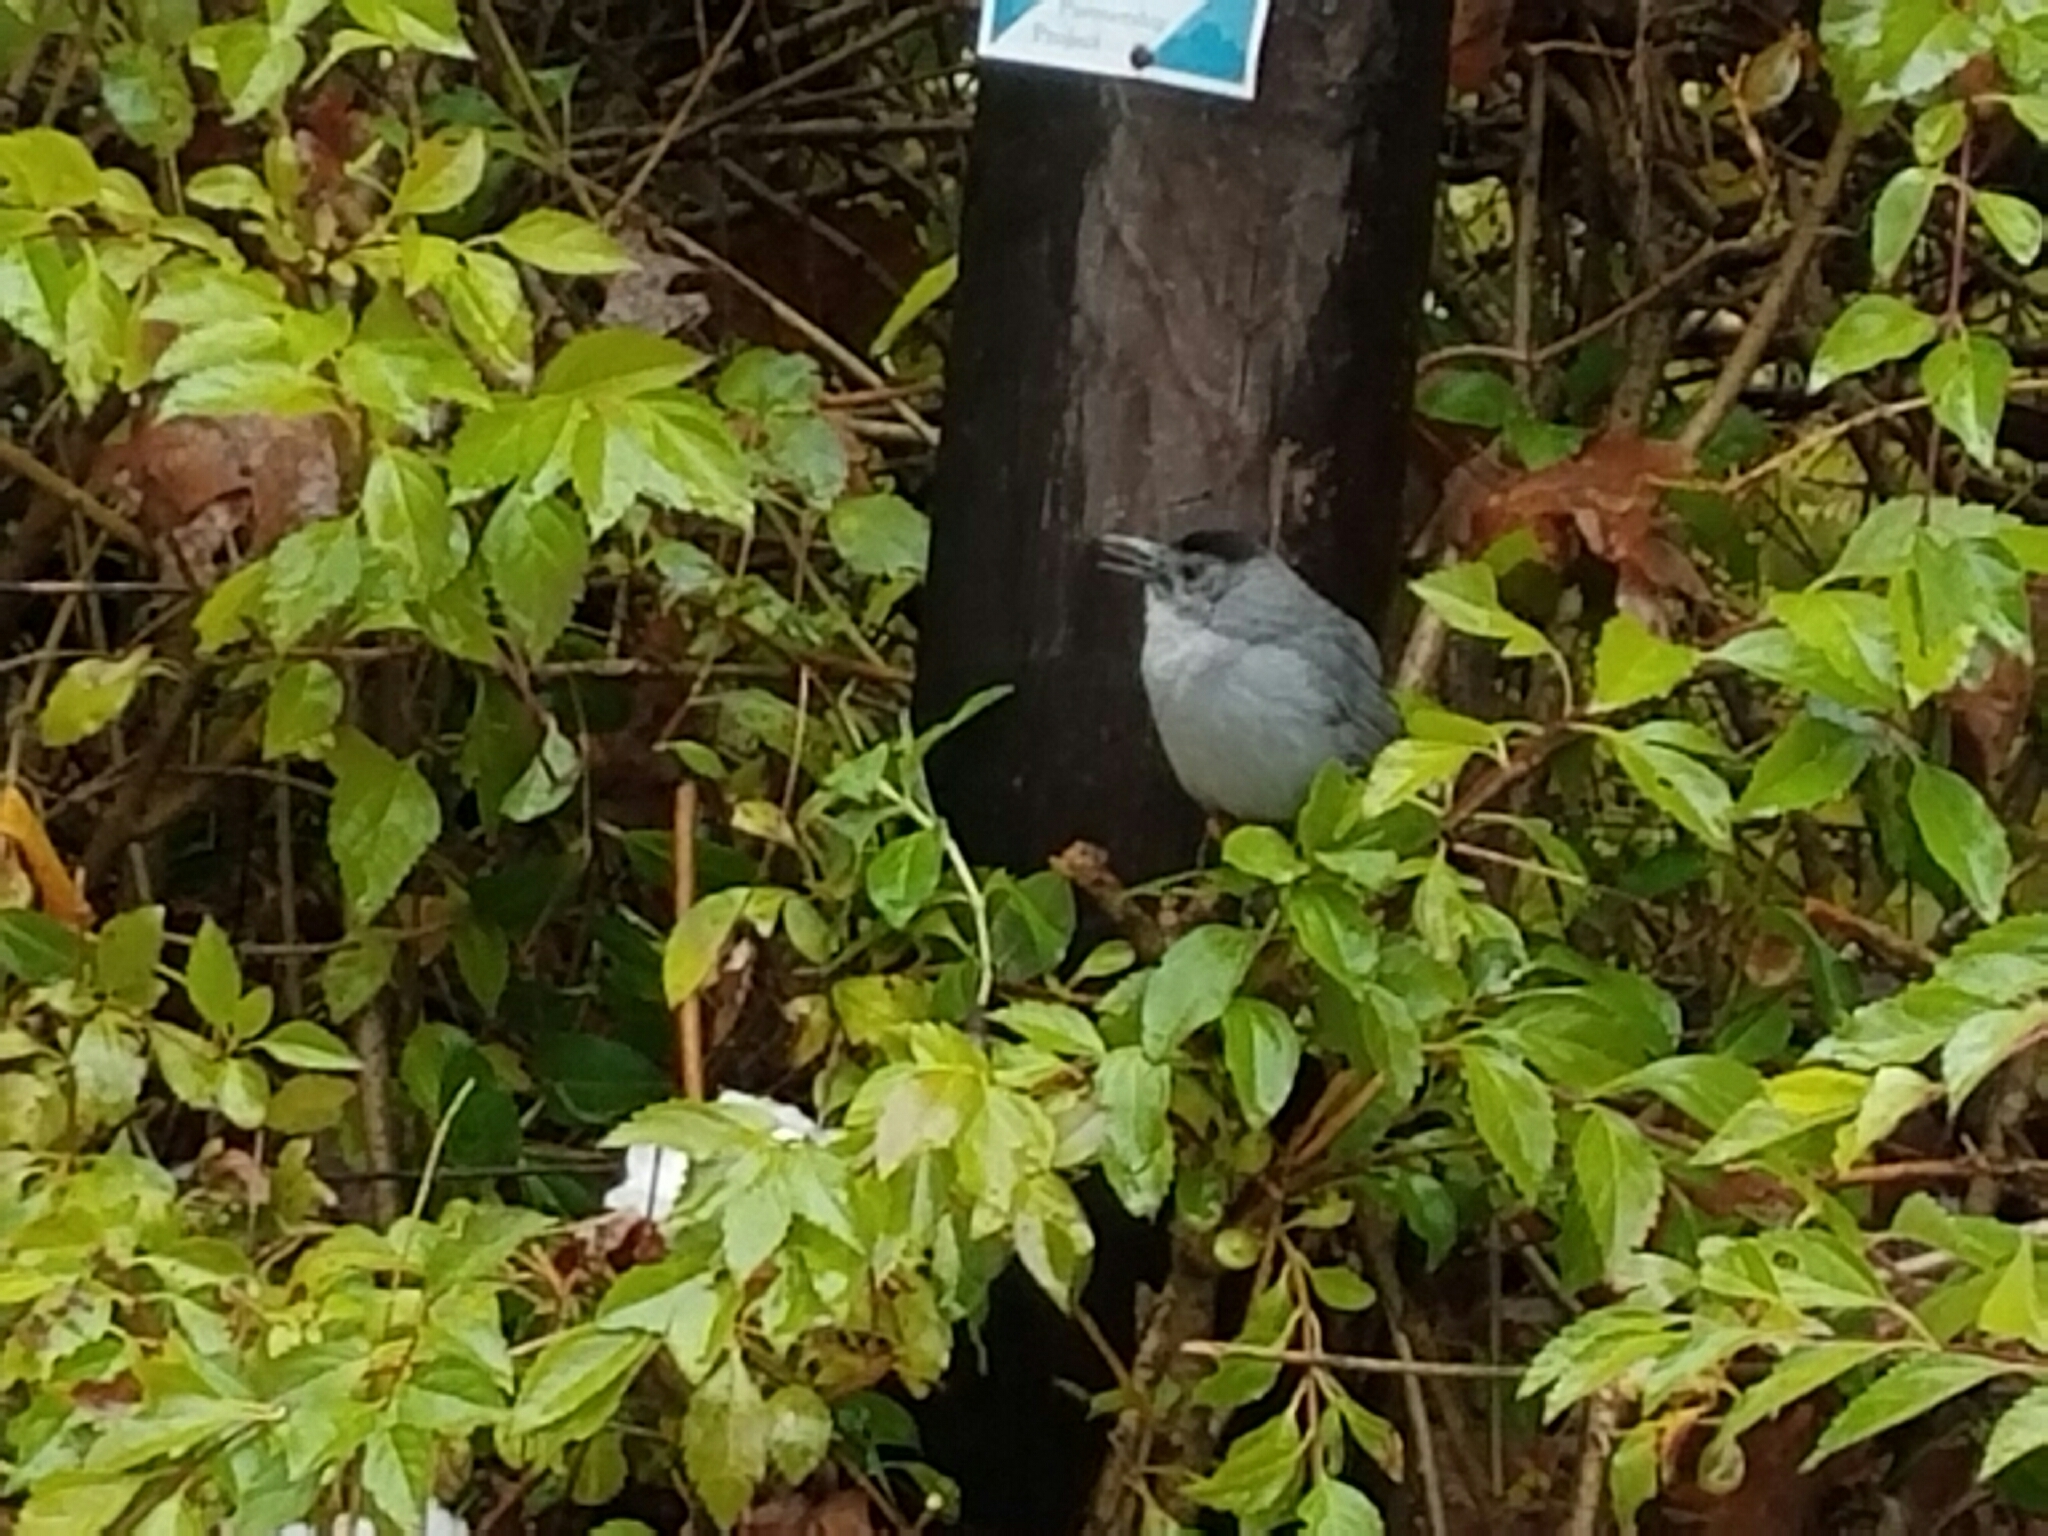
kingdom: Animalia
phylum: Chordata
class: Aves
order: Passeriformes
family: Mimidae
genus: Dumetella
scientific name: Dumetella carolinensis
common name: Gray catbird
